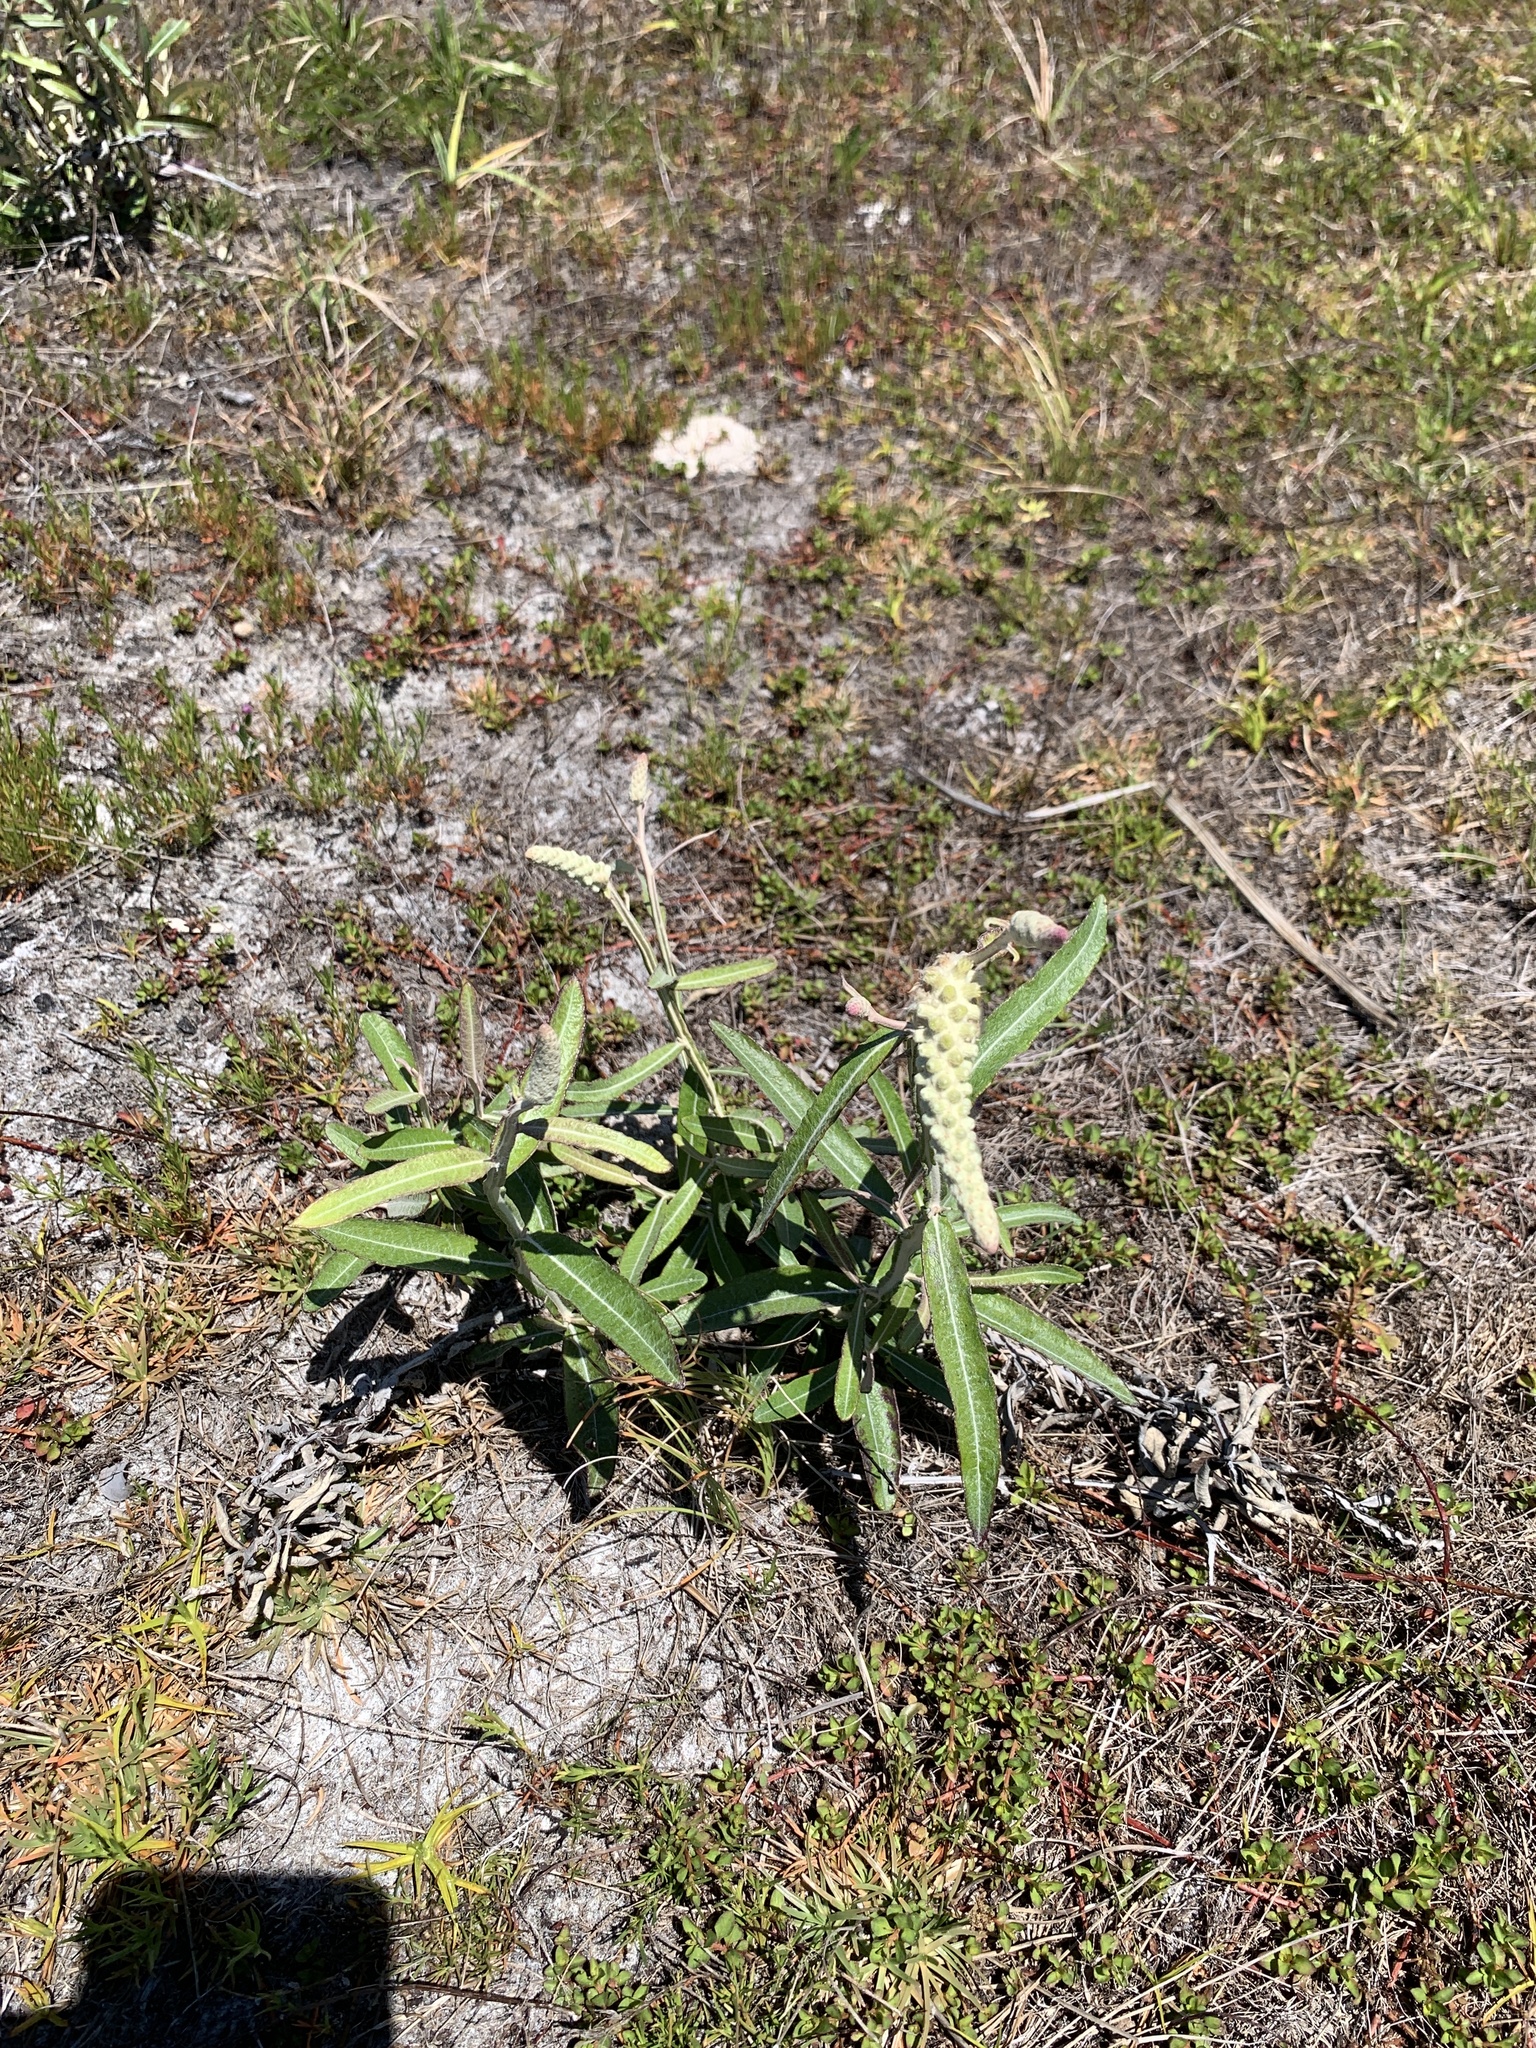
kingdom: Plantae
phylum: Tracheophyta
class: Magnoliopsida
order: Asterales
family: Asteraceae
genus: Pterocaulon
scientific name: Pterocaulon pycnostachyum
